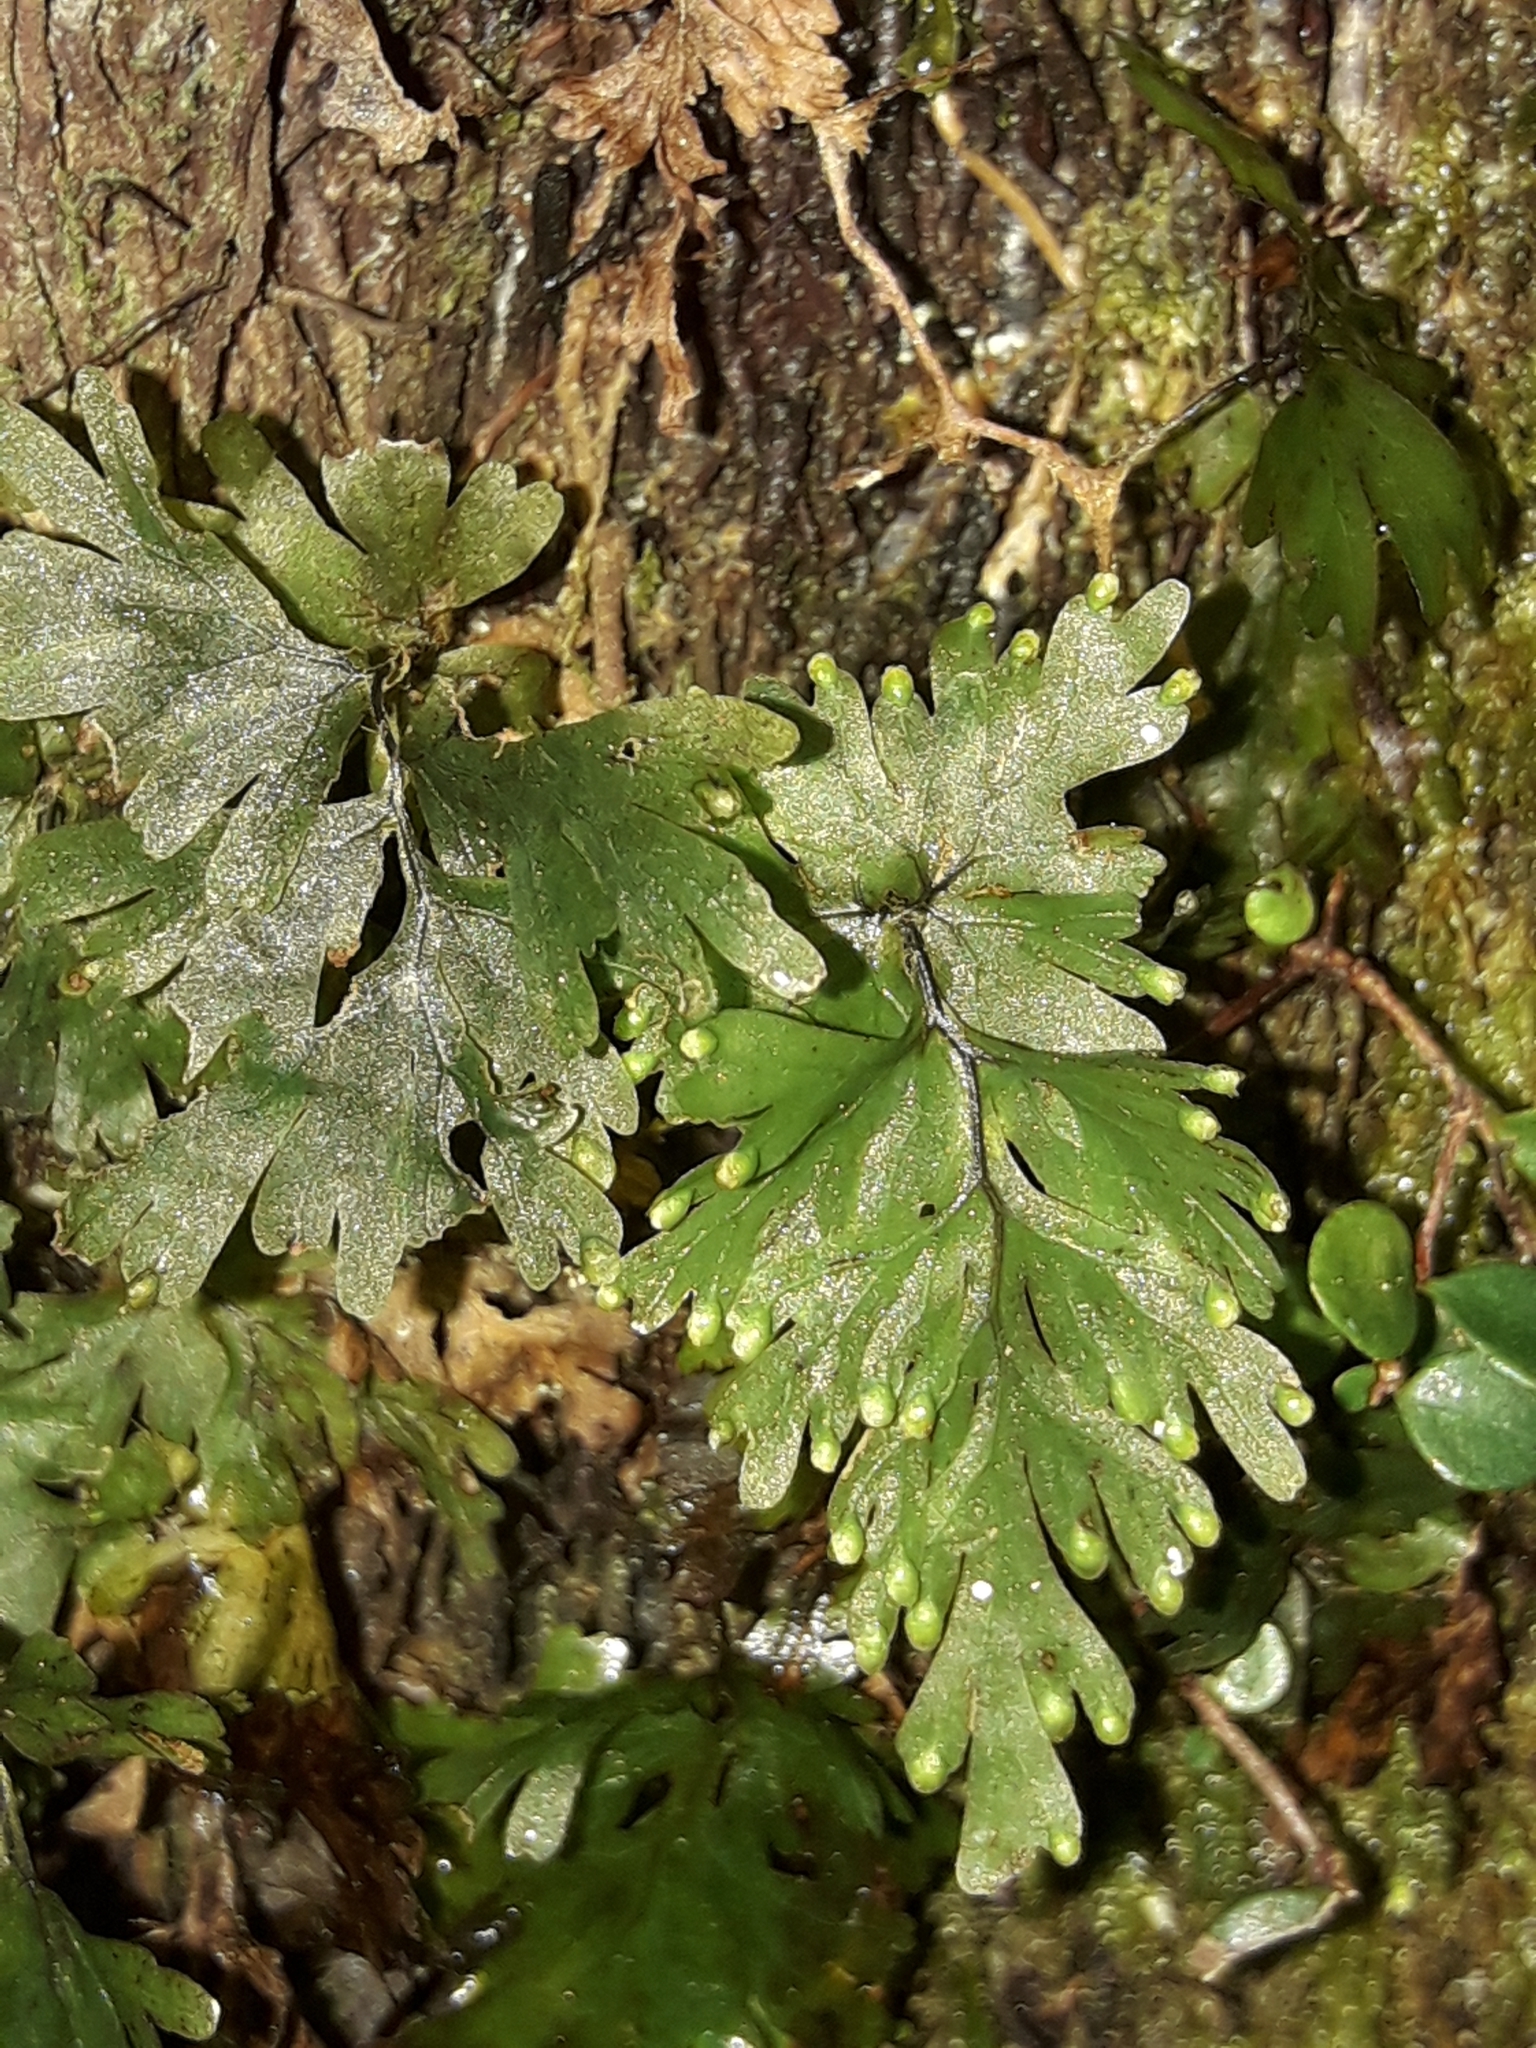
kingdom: Plantae
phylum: Tracheophyta
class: Polypodiopsida
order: Hymenophyllales
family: Hymenophyllaceae
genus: Hymenophyllum
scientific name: Hymenophyllum flabellatum
